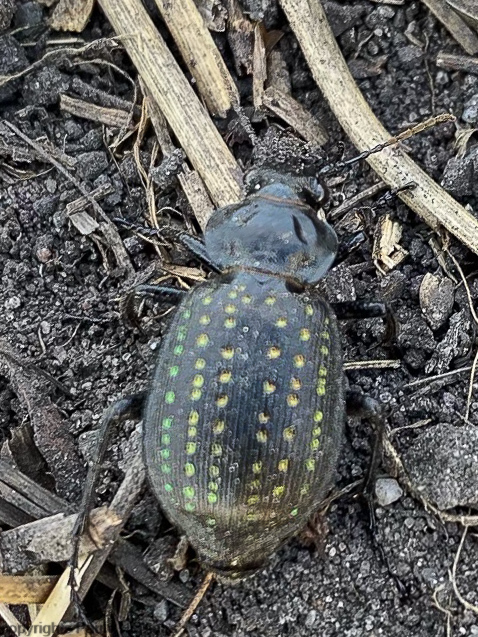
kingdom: Animalia
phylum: Arthropoda
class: Insecta
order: Coleoptera
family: Carabidae
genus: Calosoma
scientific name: Calosoma calidum
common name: Fiery hunter
